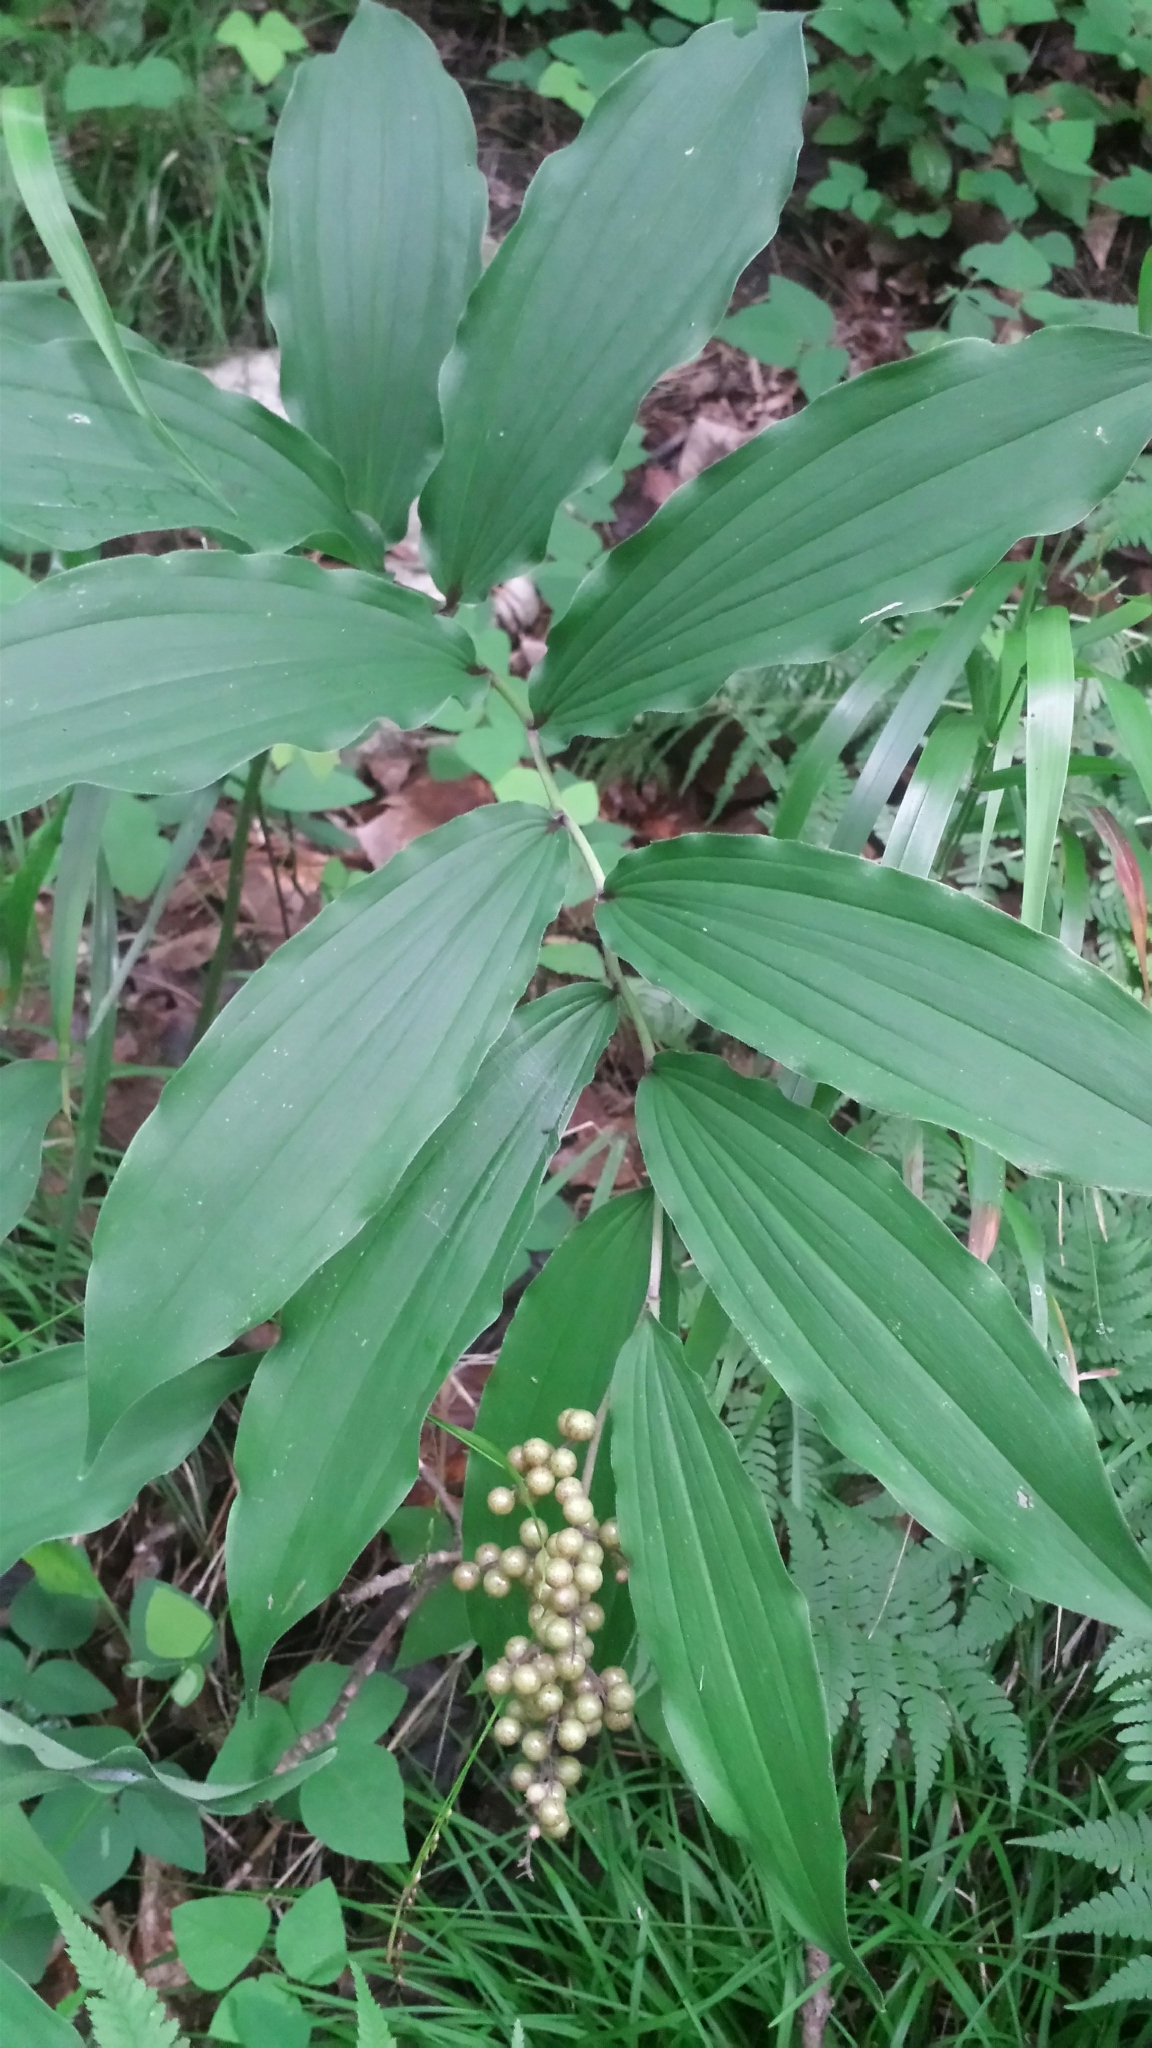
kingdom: Plantae
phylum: Tracheophyta
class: Liliopsida
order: Asparagales
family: Asparagaceae
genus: Maianthemum
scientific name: Maianthemum racemosum
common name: False spikenard
